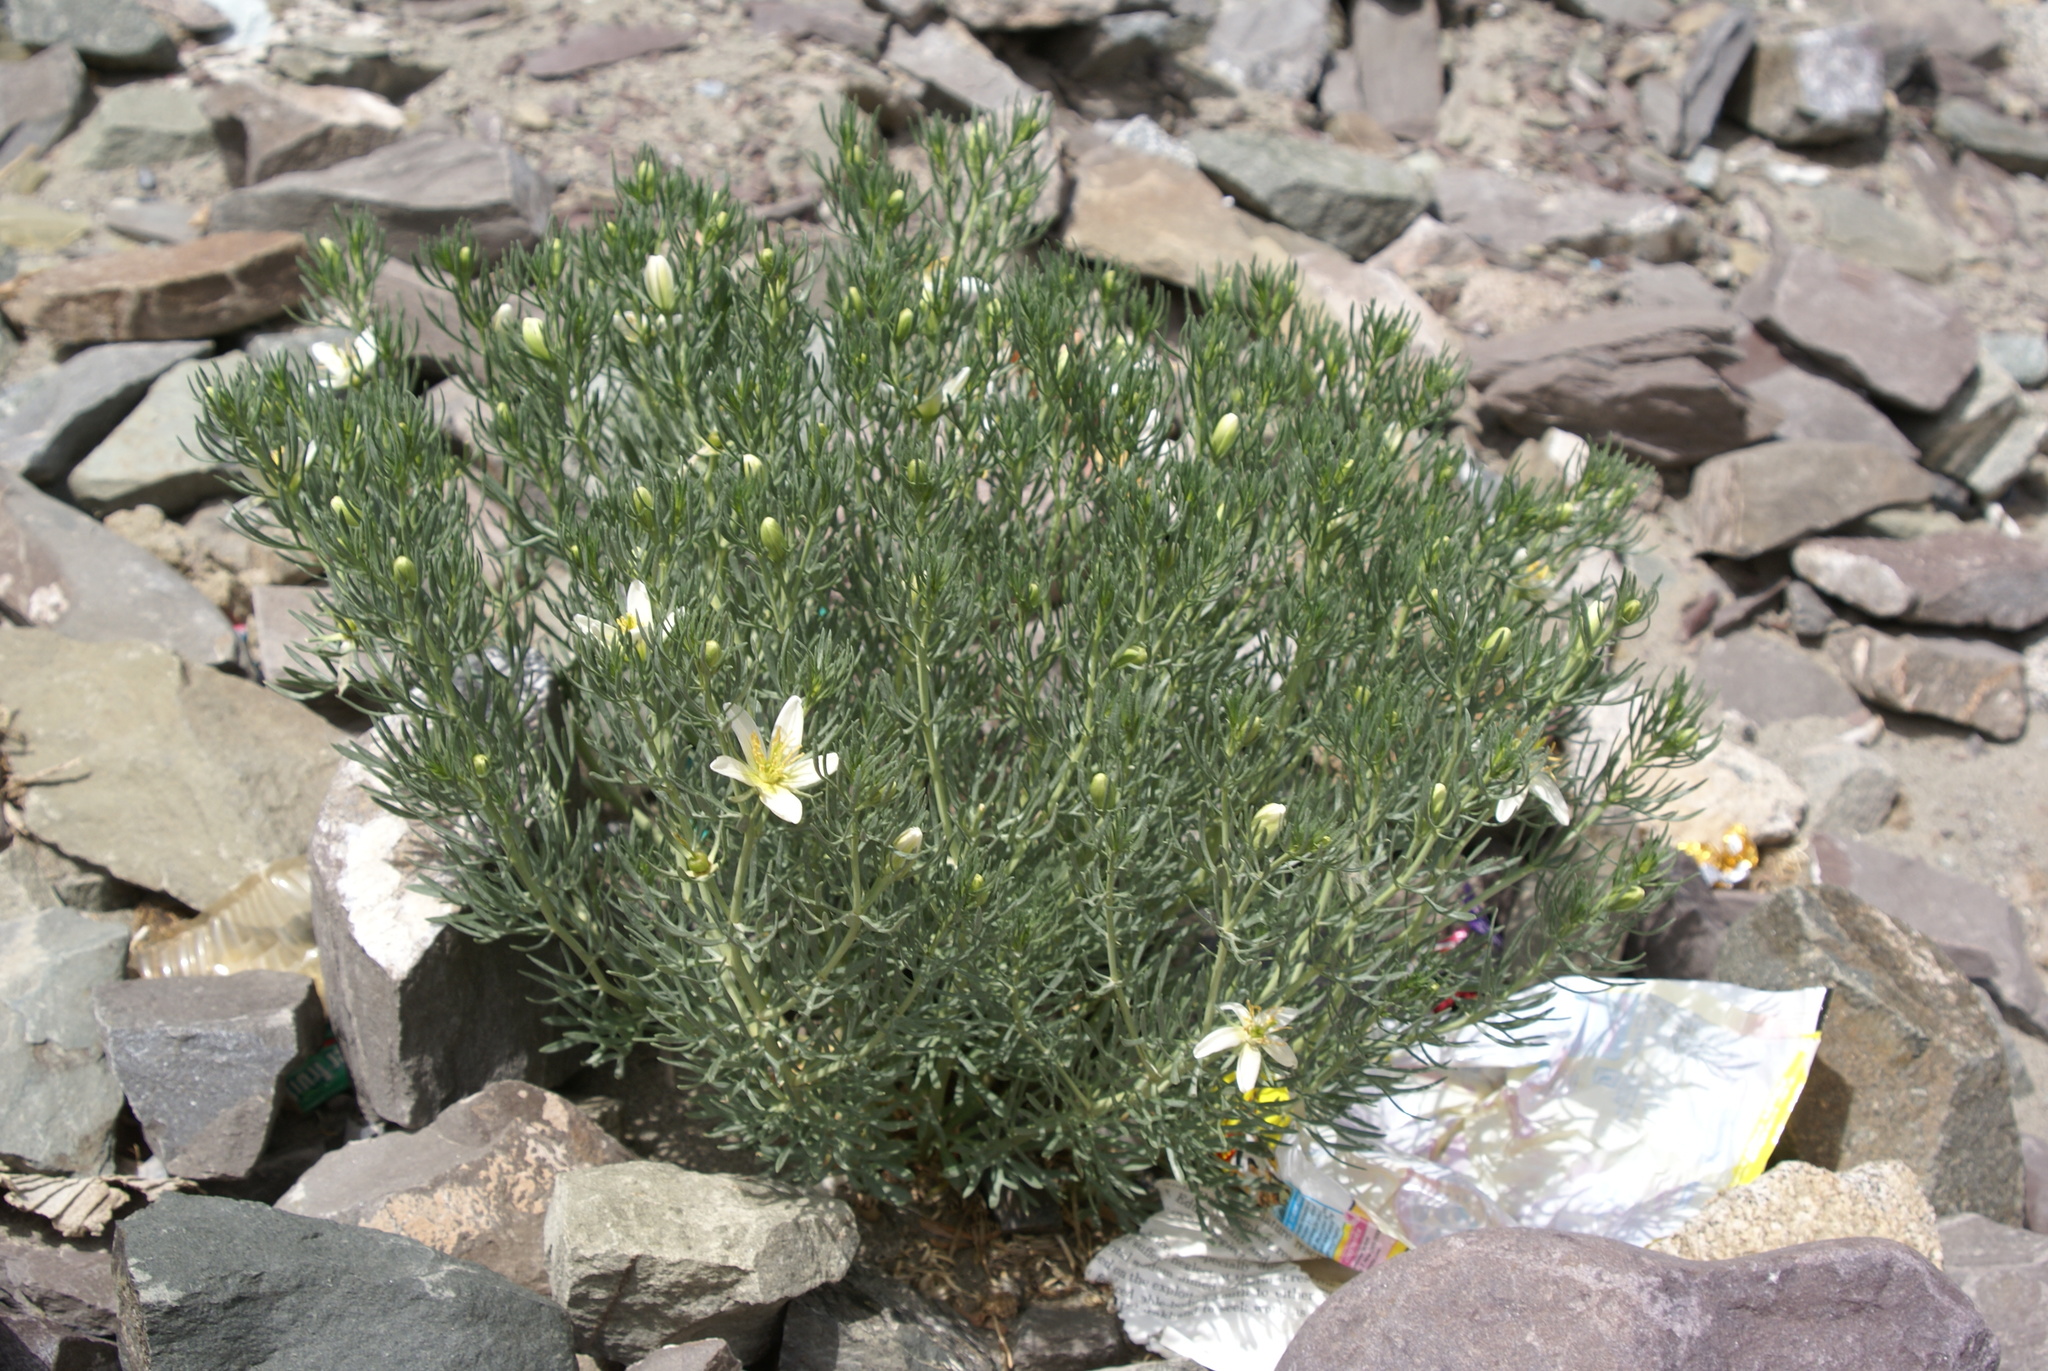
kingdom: Plantae
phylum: Tracheophyta
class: Magnoliopsida
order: Sapindales
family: Tetradiclidaceae
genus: Peganum
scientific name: Peganum harmala
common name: Harmal peganum
